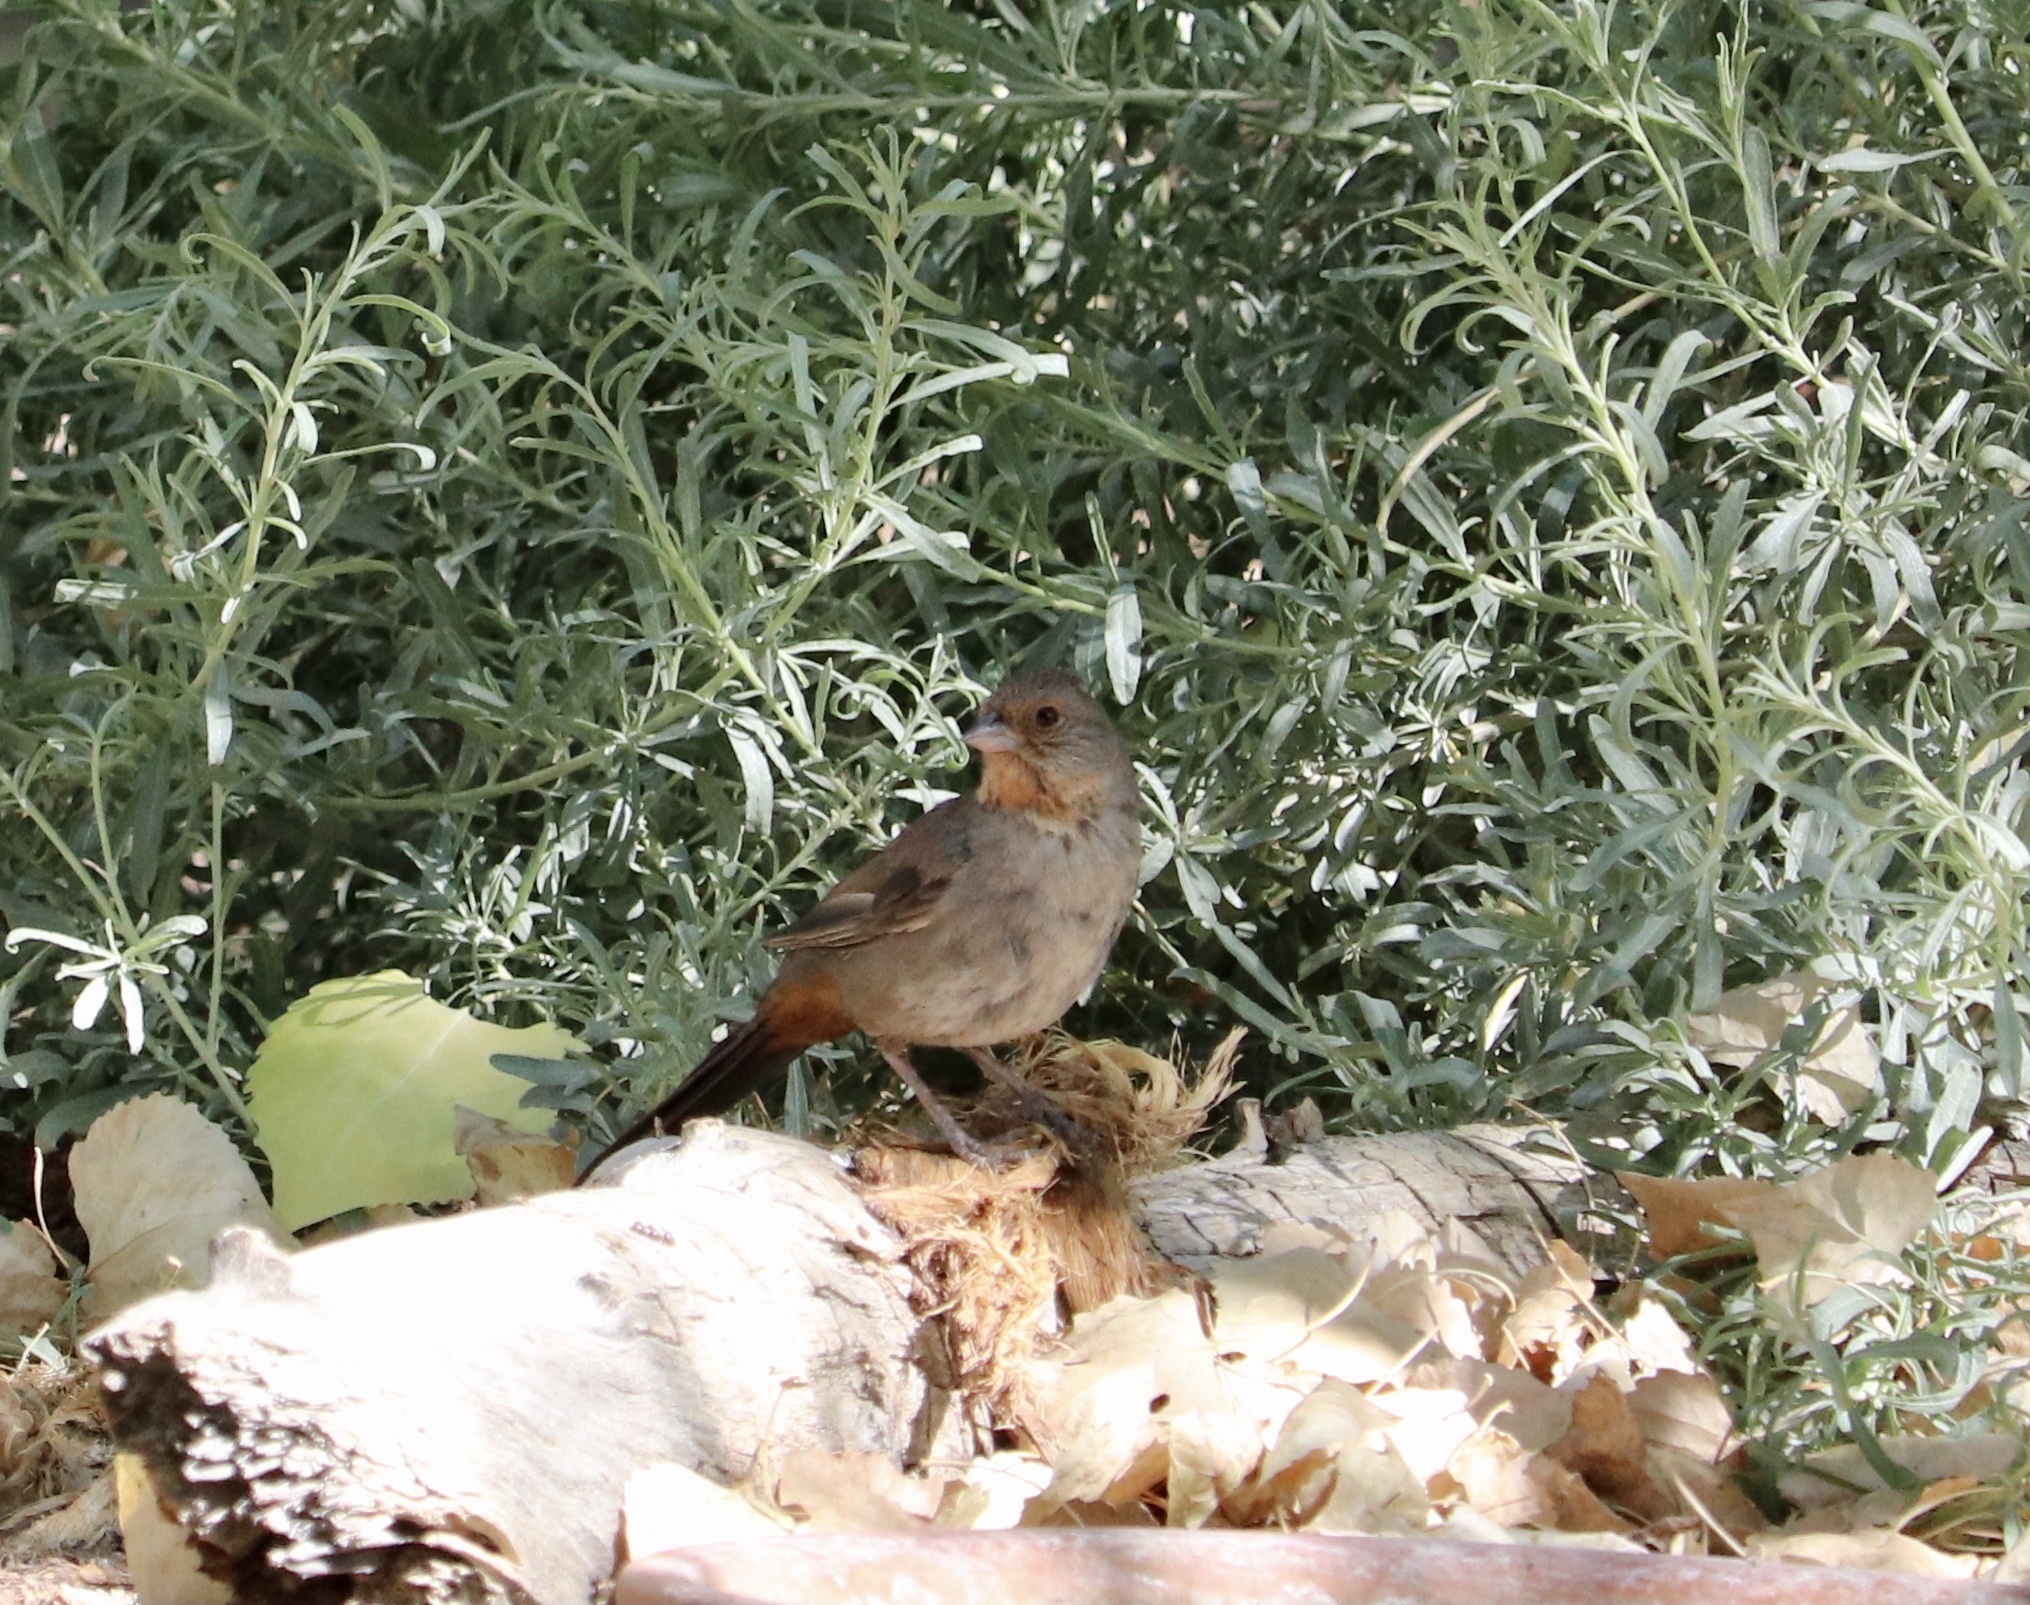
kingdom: Animalia
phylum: Chordata
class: Aves
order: Passeriformes
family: Passerellidae
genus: Melozone
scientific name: Melozone crissalis
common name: California towhee
